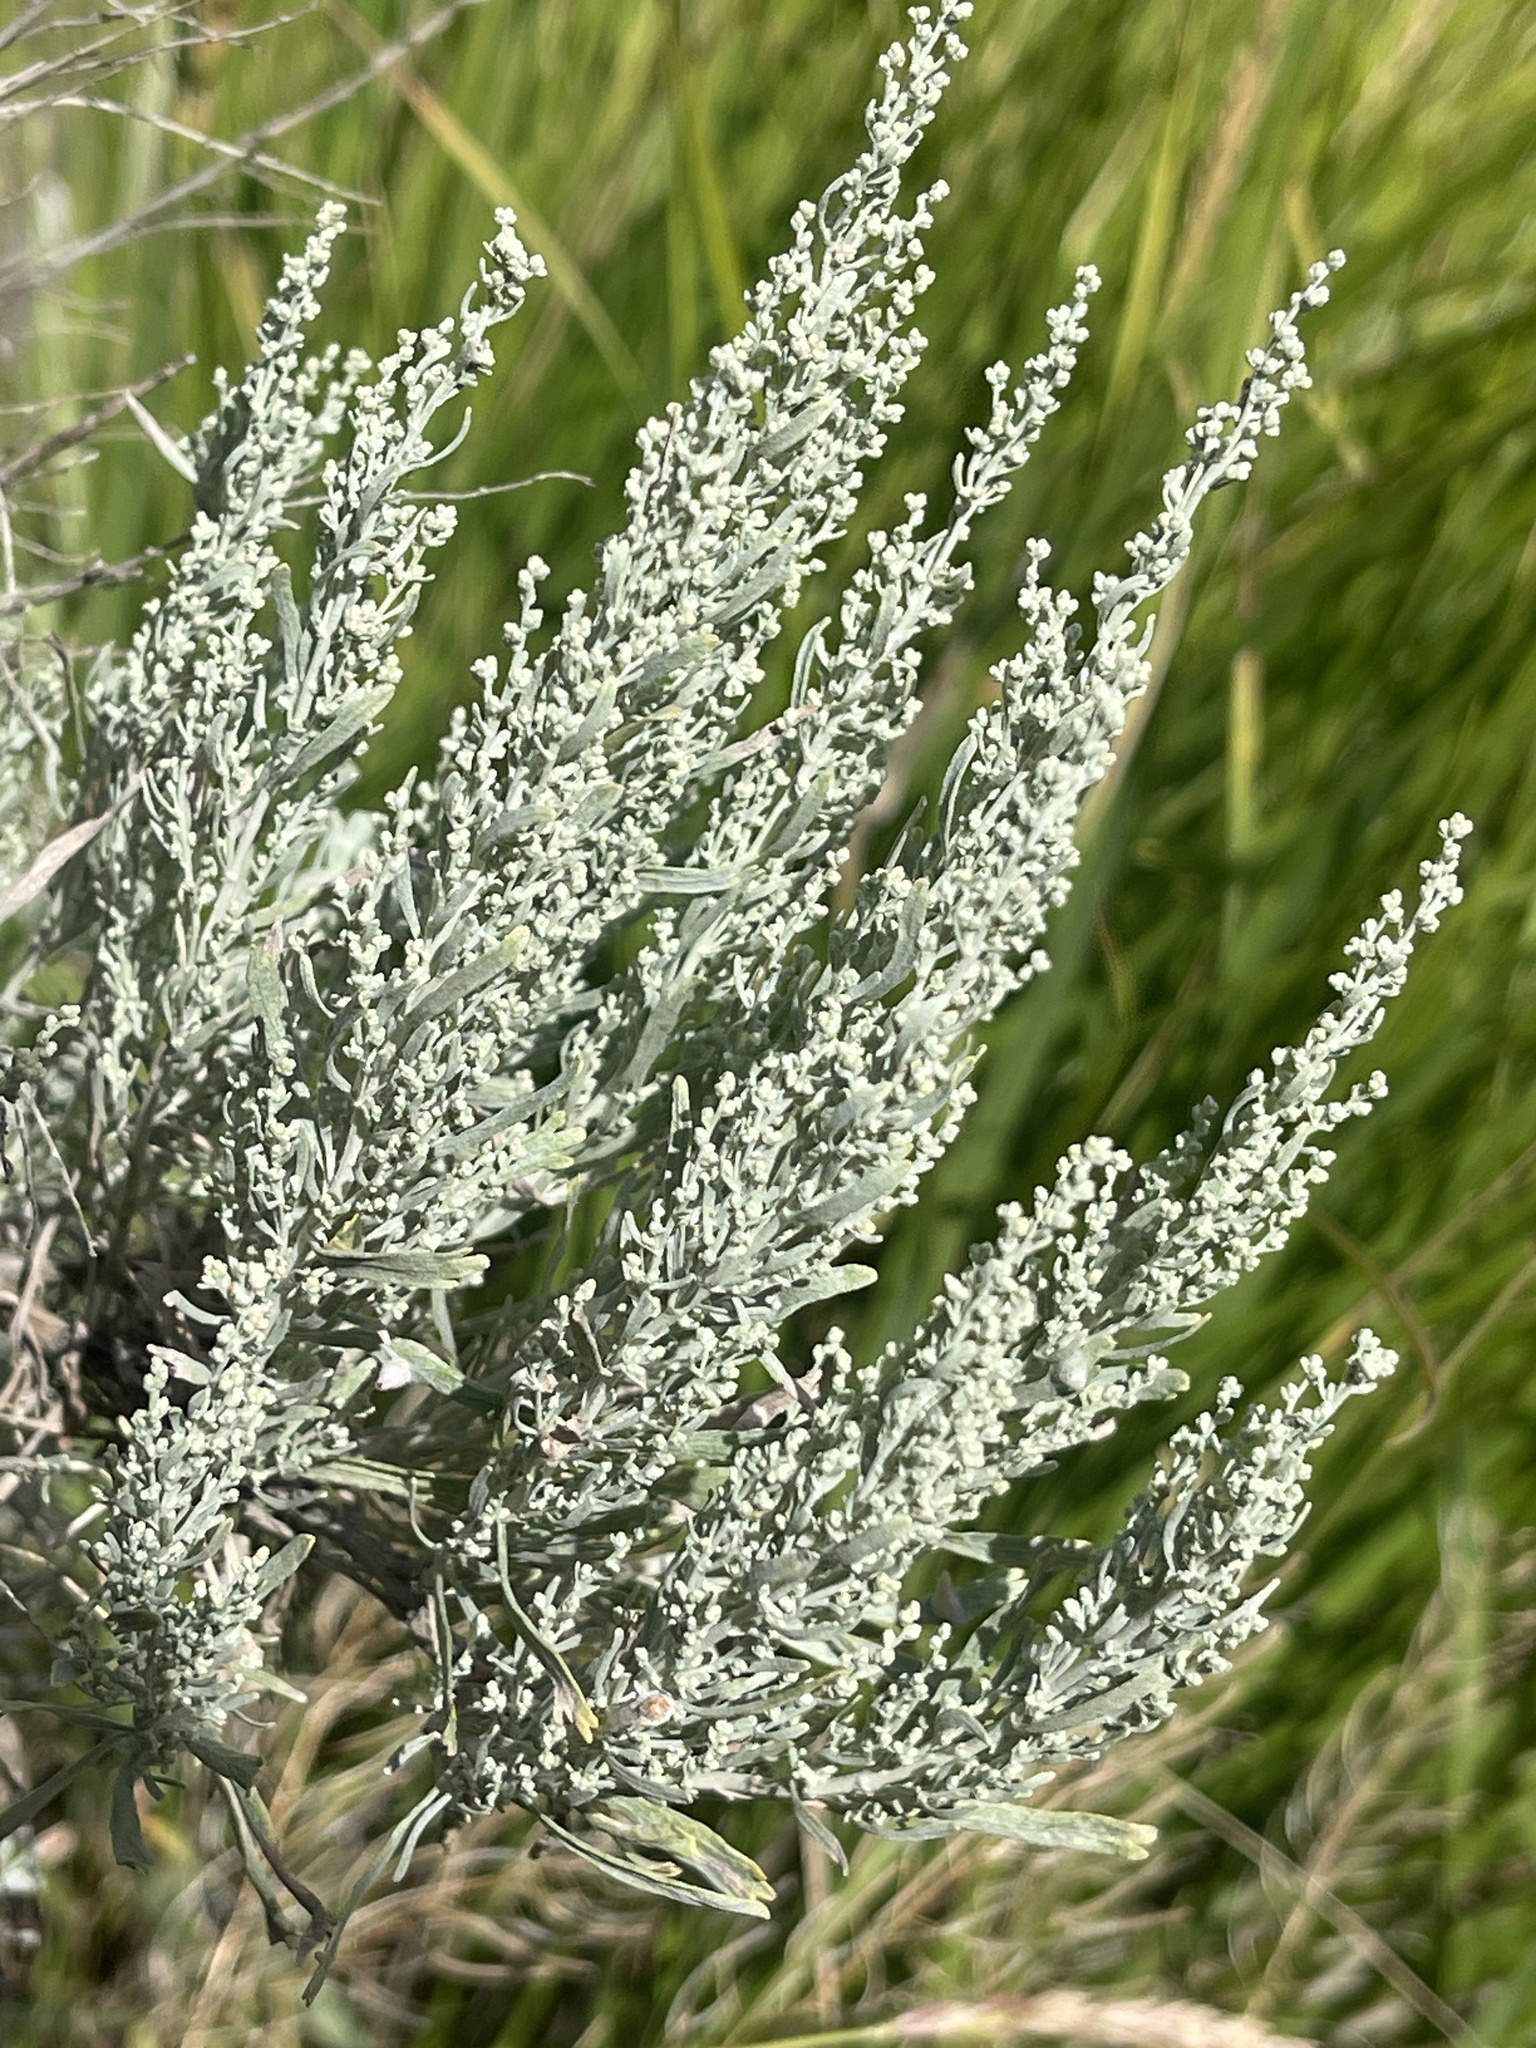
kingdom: Plantae
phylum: Tracheophyta
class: Magnoliopsida
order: Asterales
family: Asteraceae
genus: Artemisia
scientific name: Artemisia tridentata
